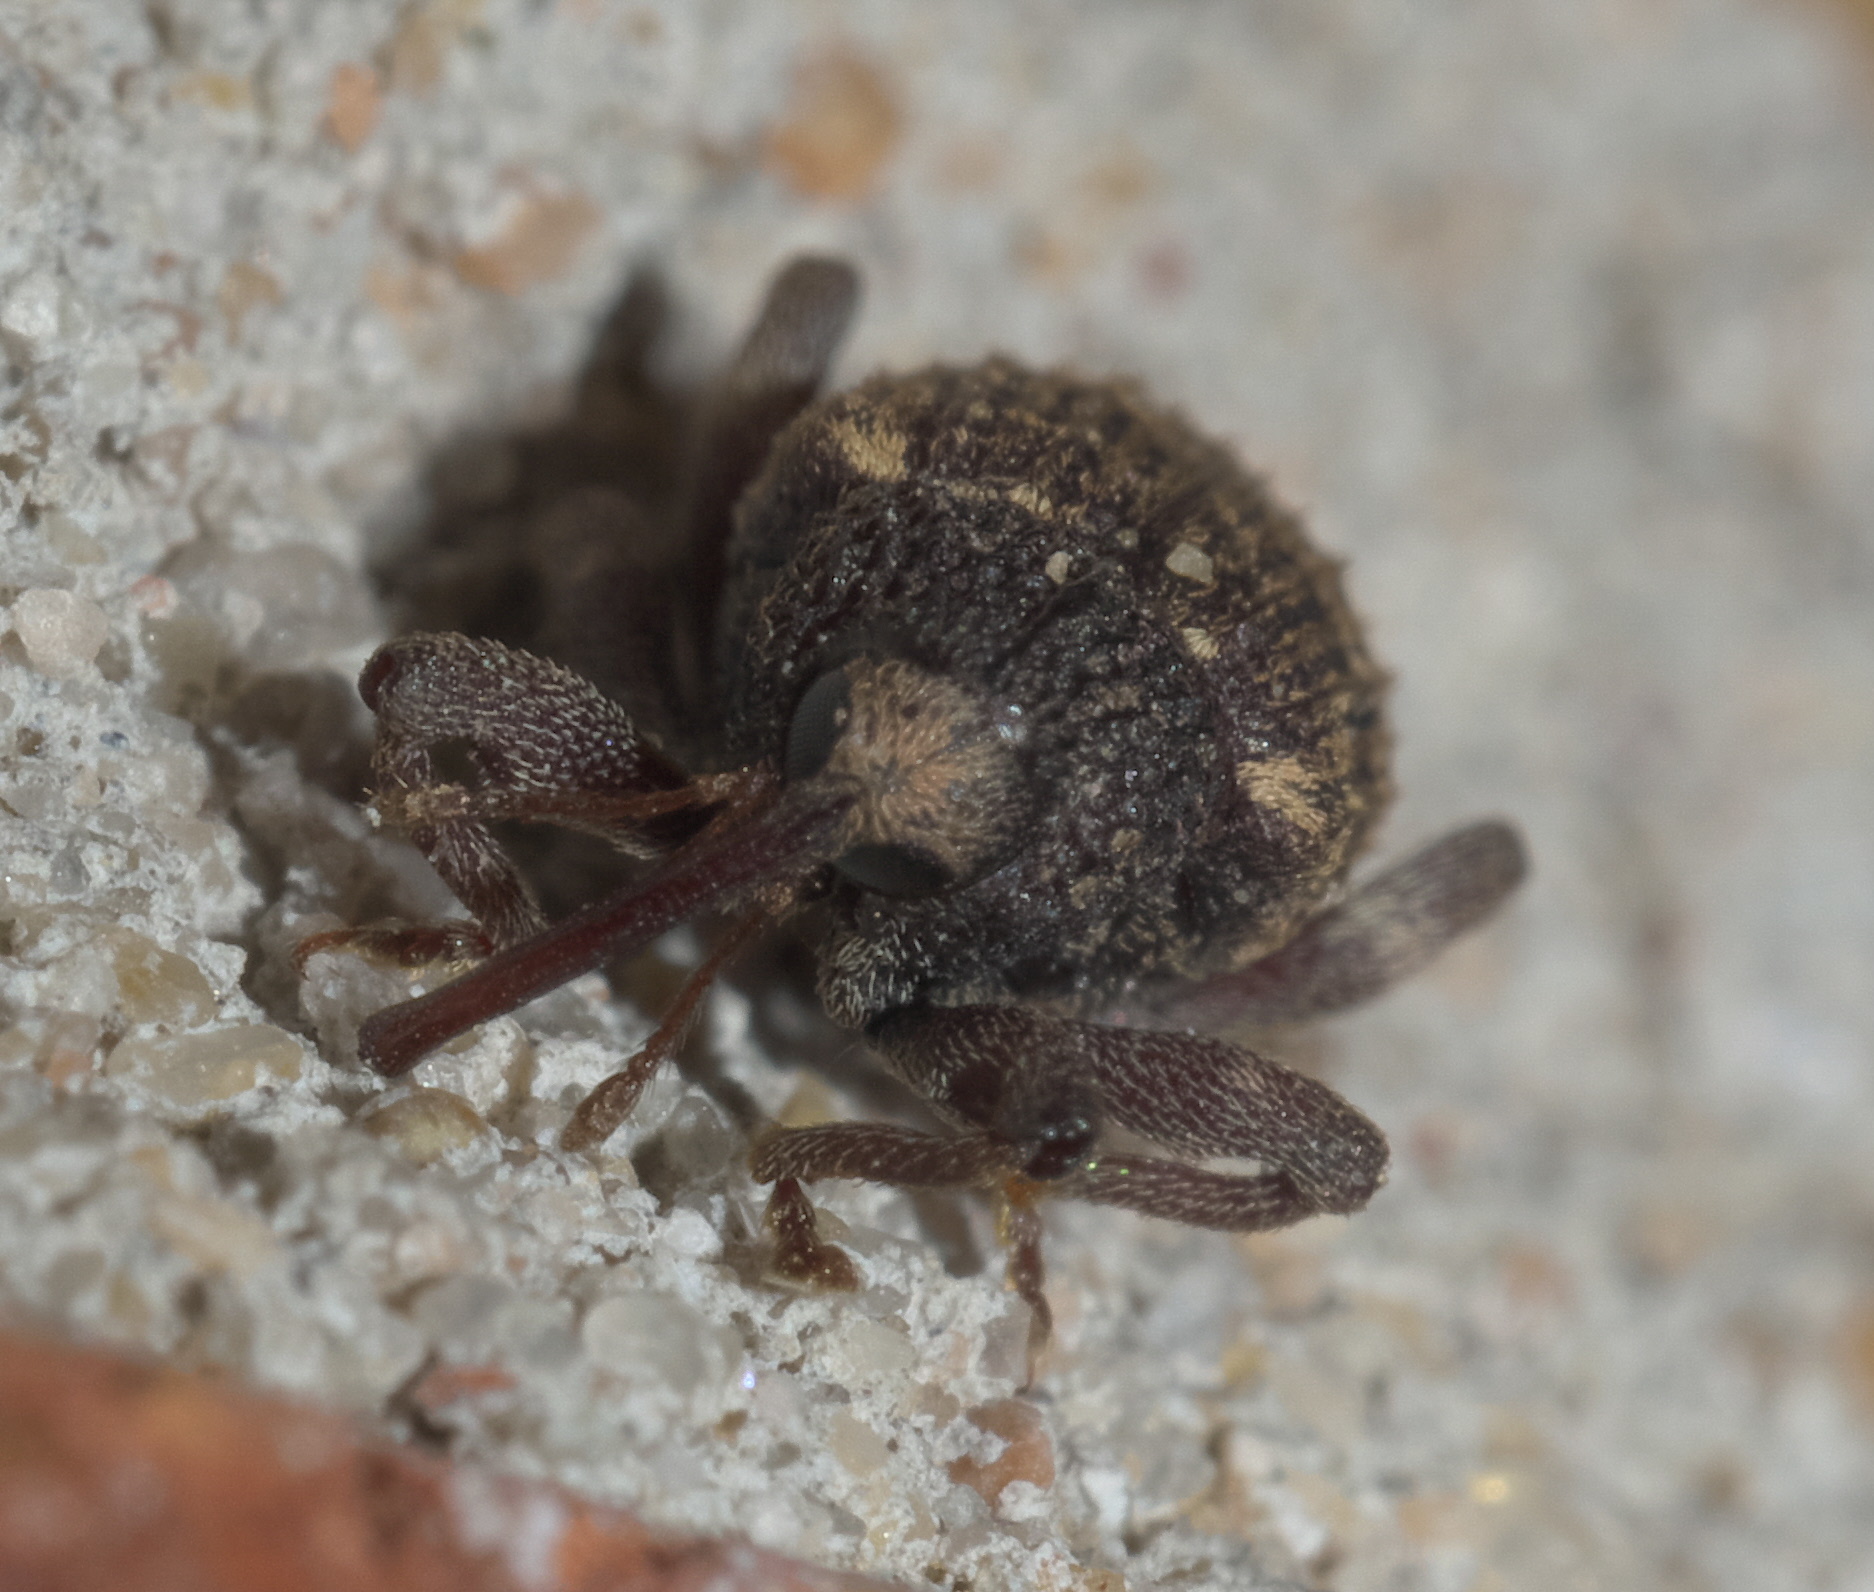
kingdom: Animalia
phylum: Arthropoda
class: Insecta
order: Coleoptera
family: Curculionidae
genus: Conotrachelus
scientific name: Conotrachelus carinifer
